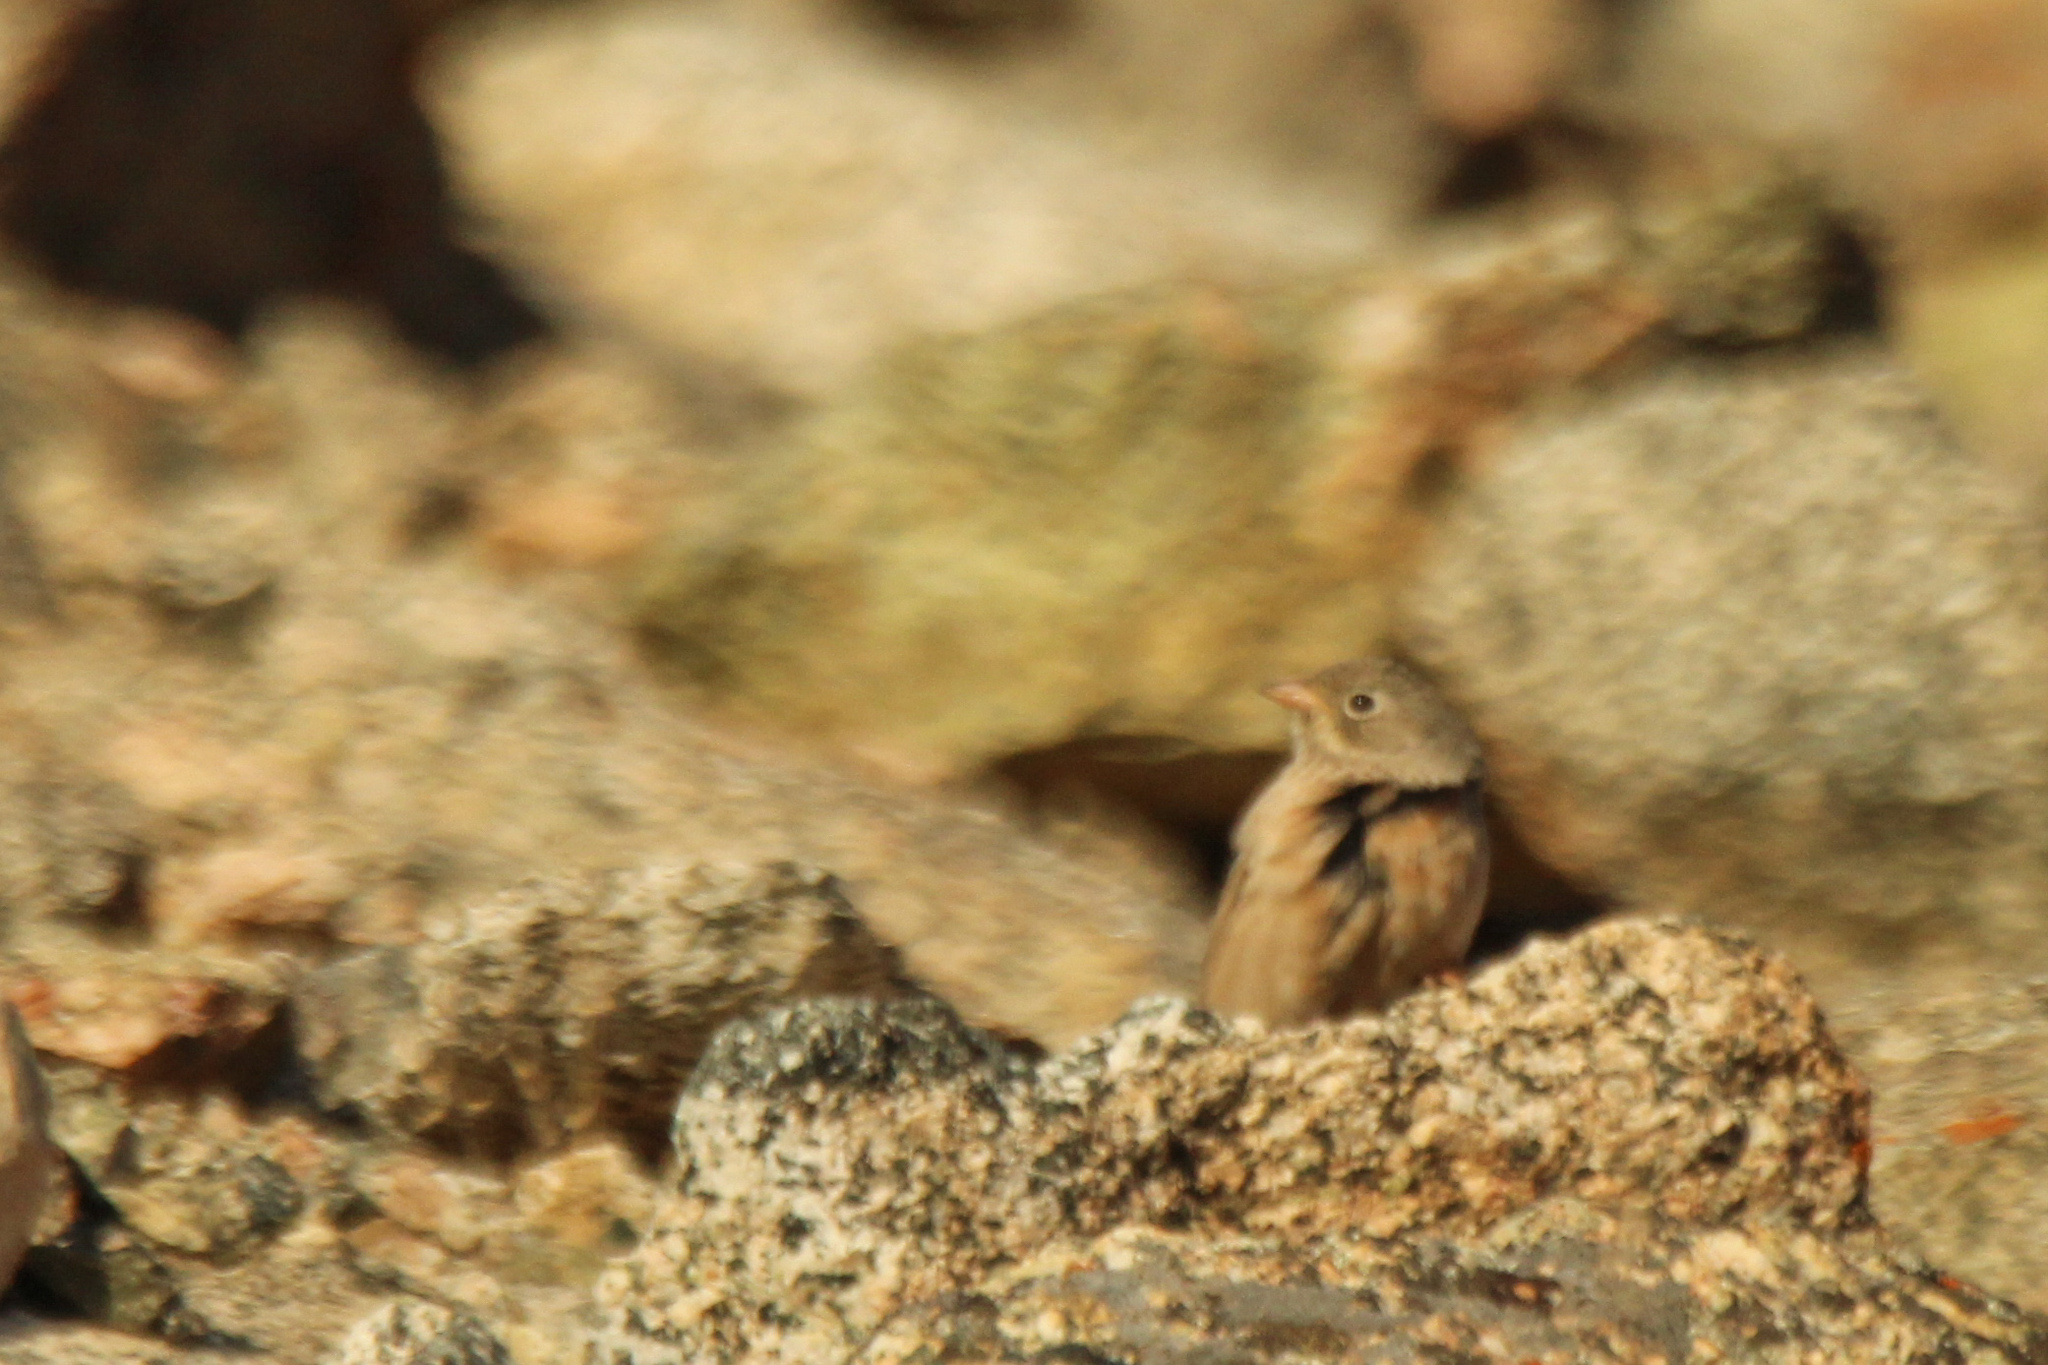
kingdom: Animalia
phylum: Chordata
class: Aves
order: Passeriformes
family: Emberizidae
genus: Emberiza
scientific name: Emberiza buchanani
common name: Grey-necked bunting
